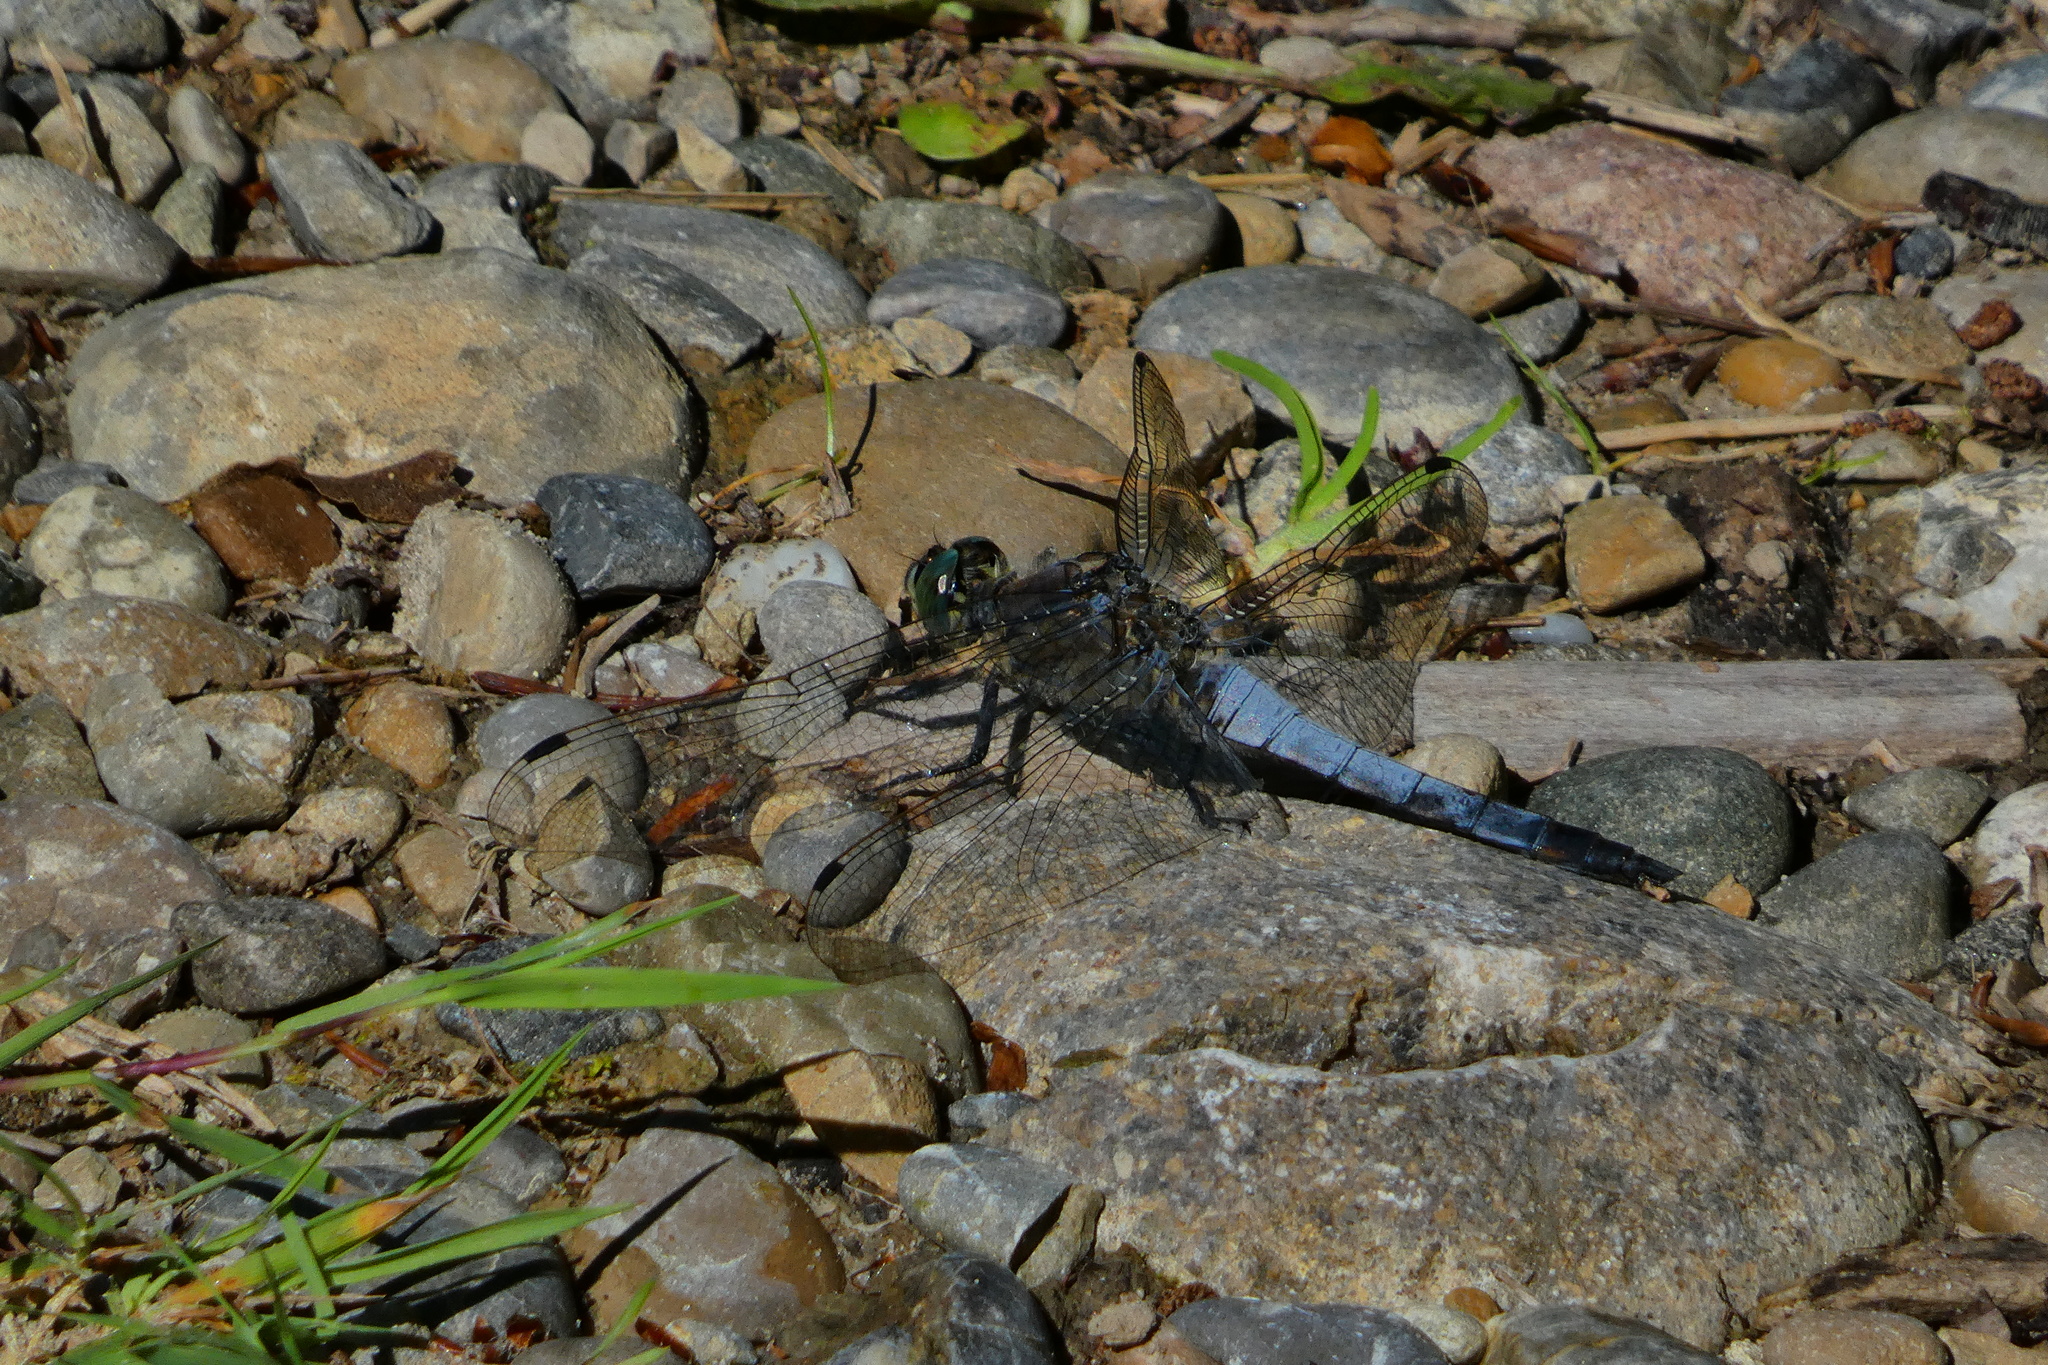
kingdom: Animalia
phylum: Arthropoda
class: Insecta
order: Odonata
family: Libellulidae
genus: Orthetrum
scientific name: Orthetrum cancellatum
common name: Black-tailed skimmer
